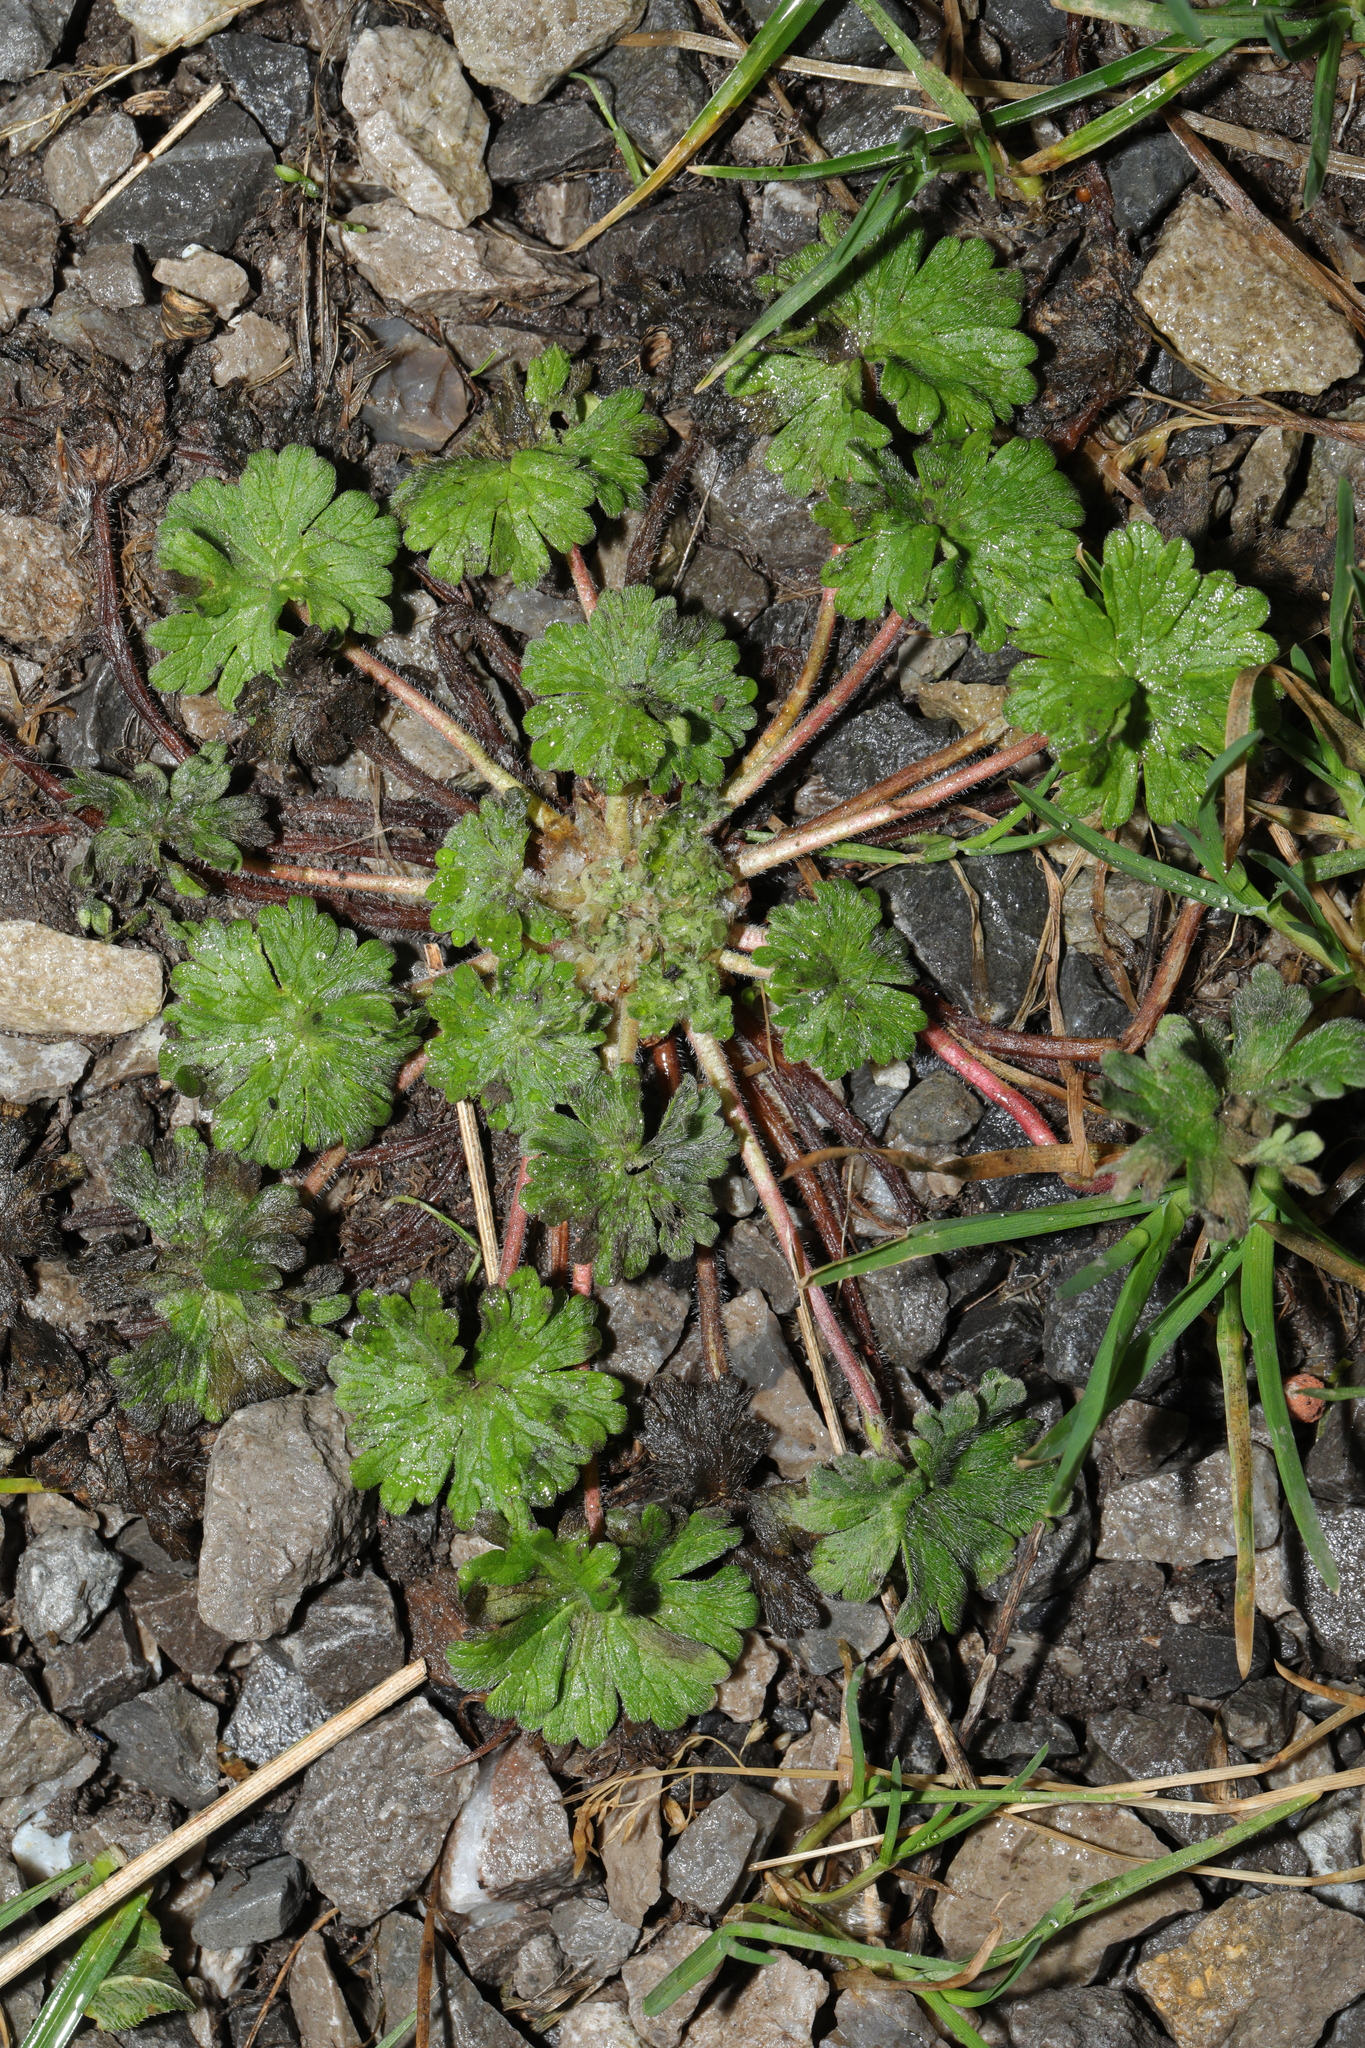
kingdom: Plantae
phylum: Tracheophyta
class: Magnoliopsida
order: Geraniales
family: Geraniaceae
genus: Geranium
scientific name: Geranium molle
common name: Dove's-foot crane's-bill
